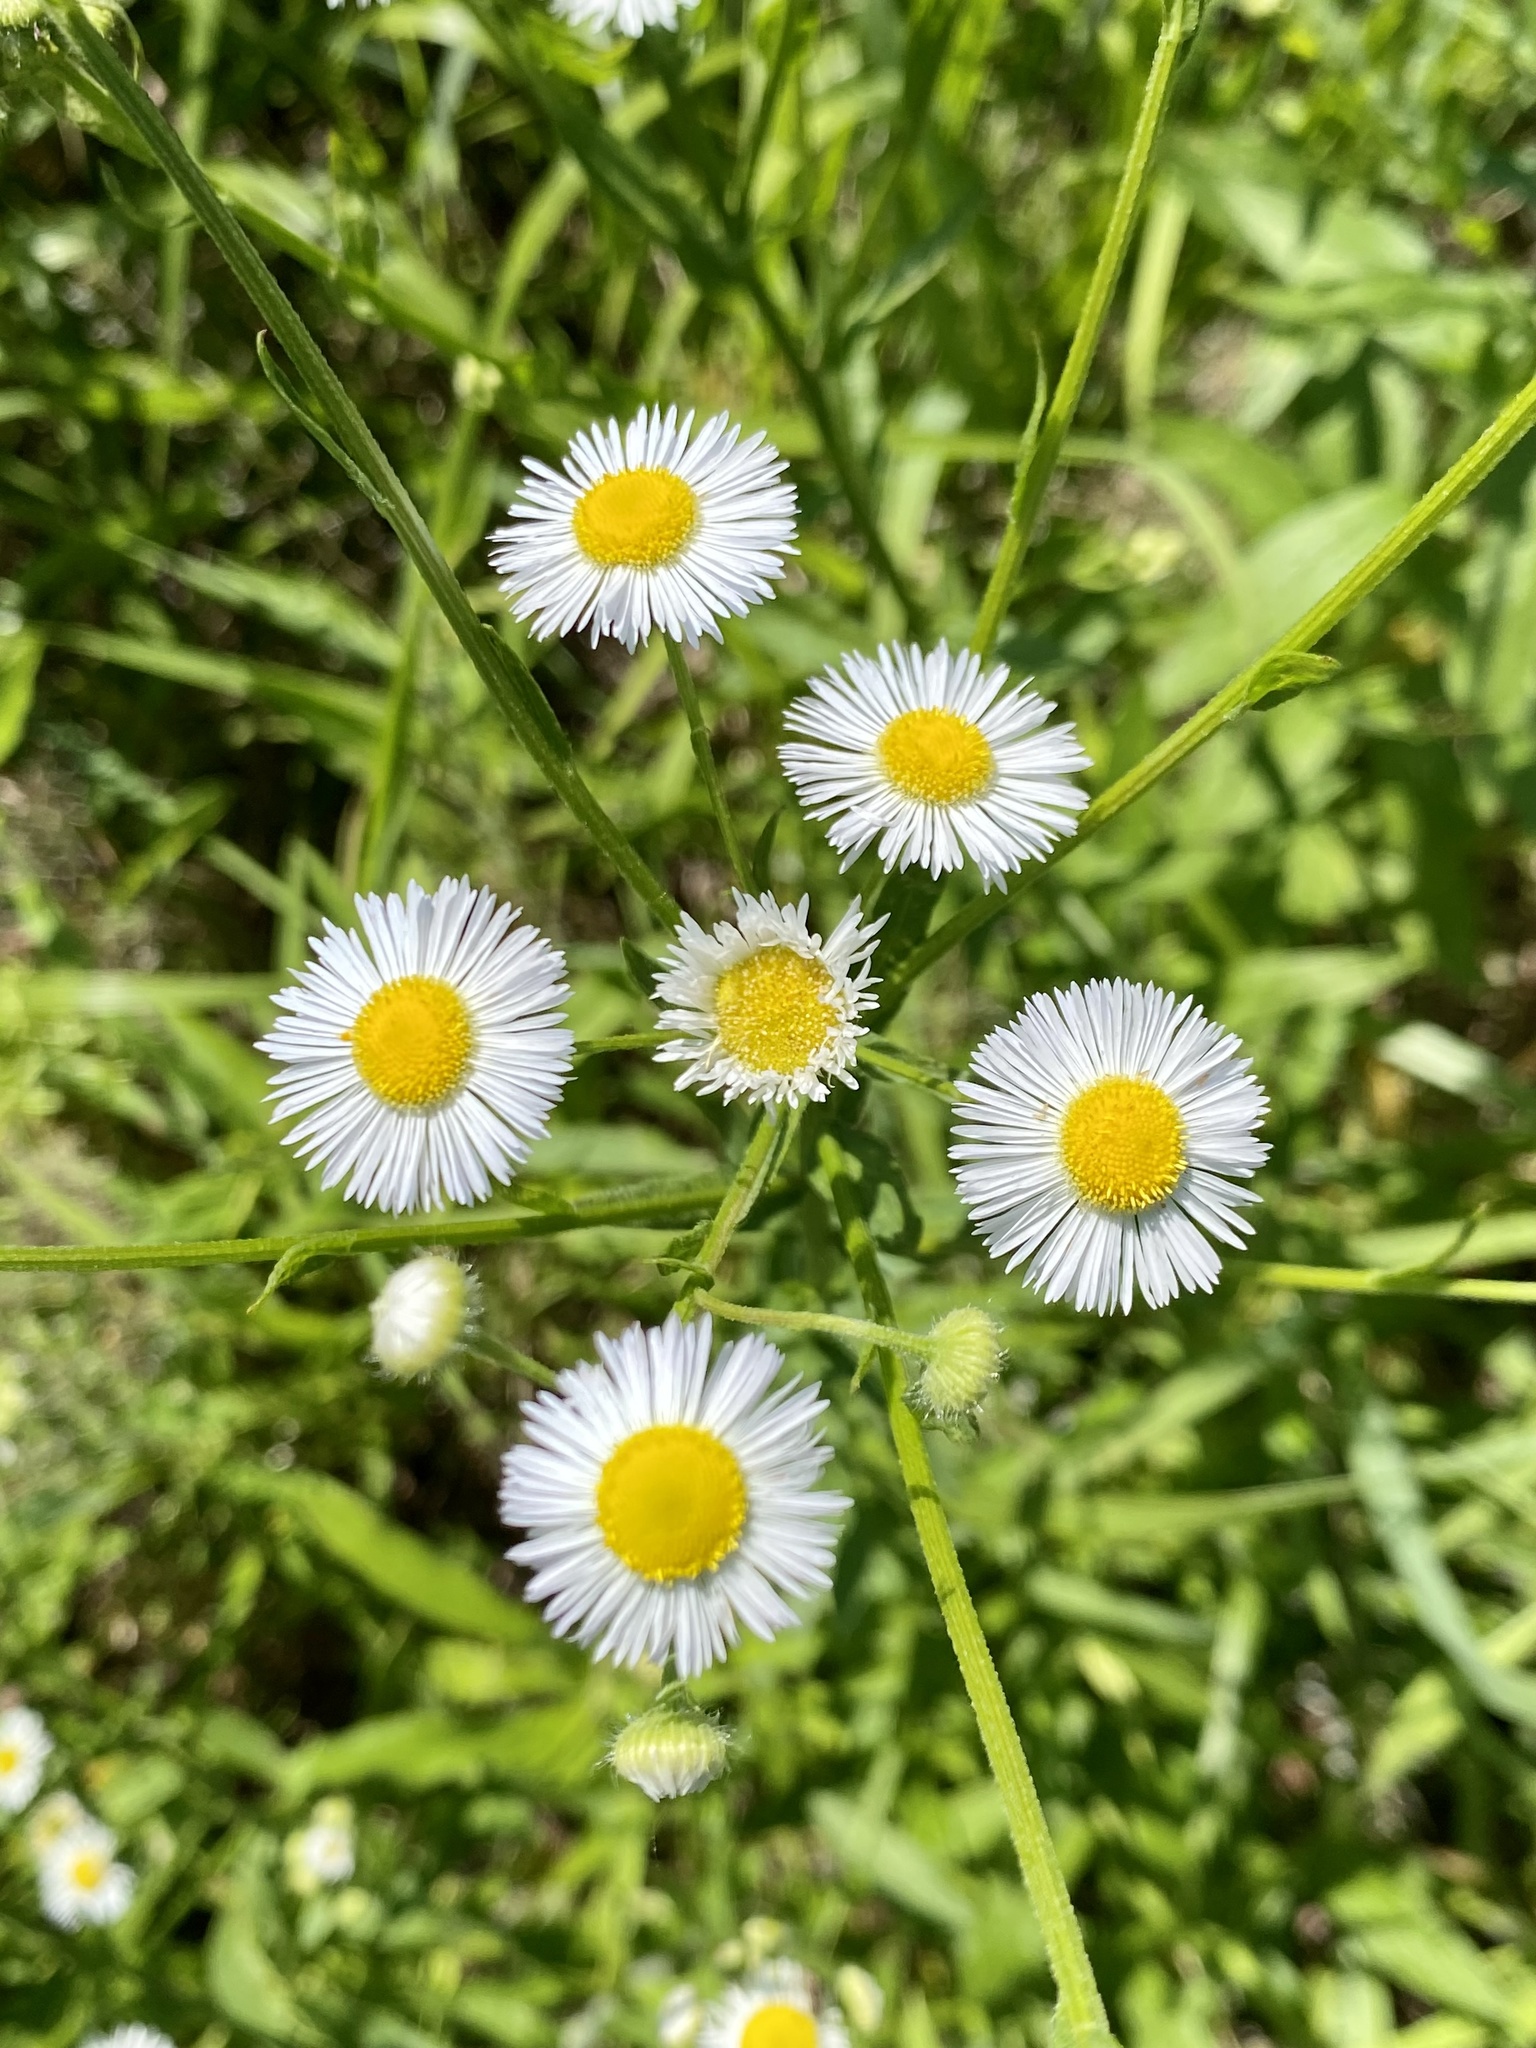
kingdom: Plantae
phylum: Tracheophyta
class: Magnoliopsida
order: Asterales
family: Asteraceae
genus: Erigeron
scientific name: Erigeron annuus
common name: Tall fleabane
